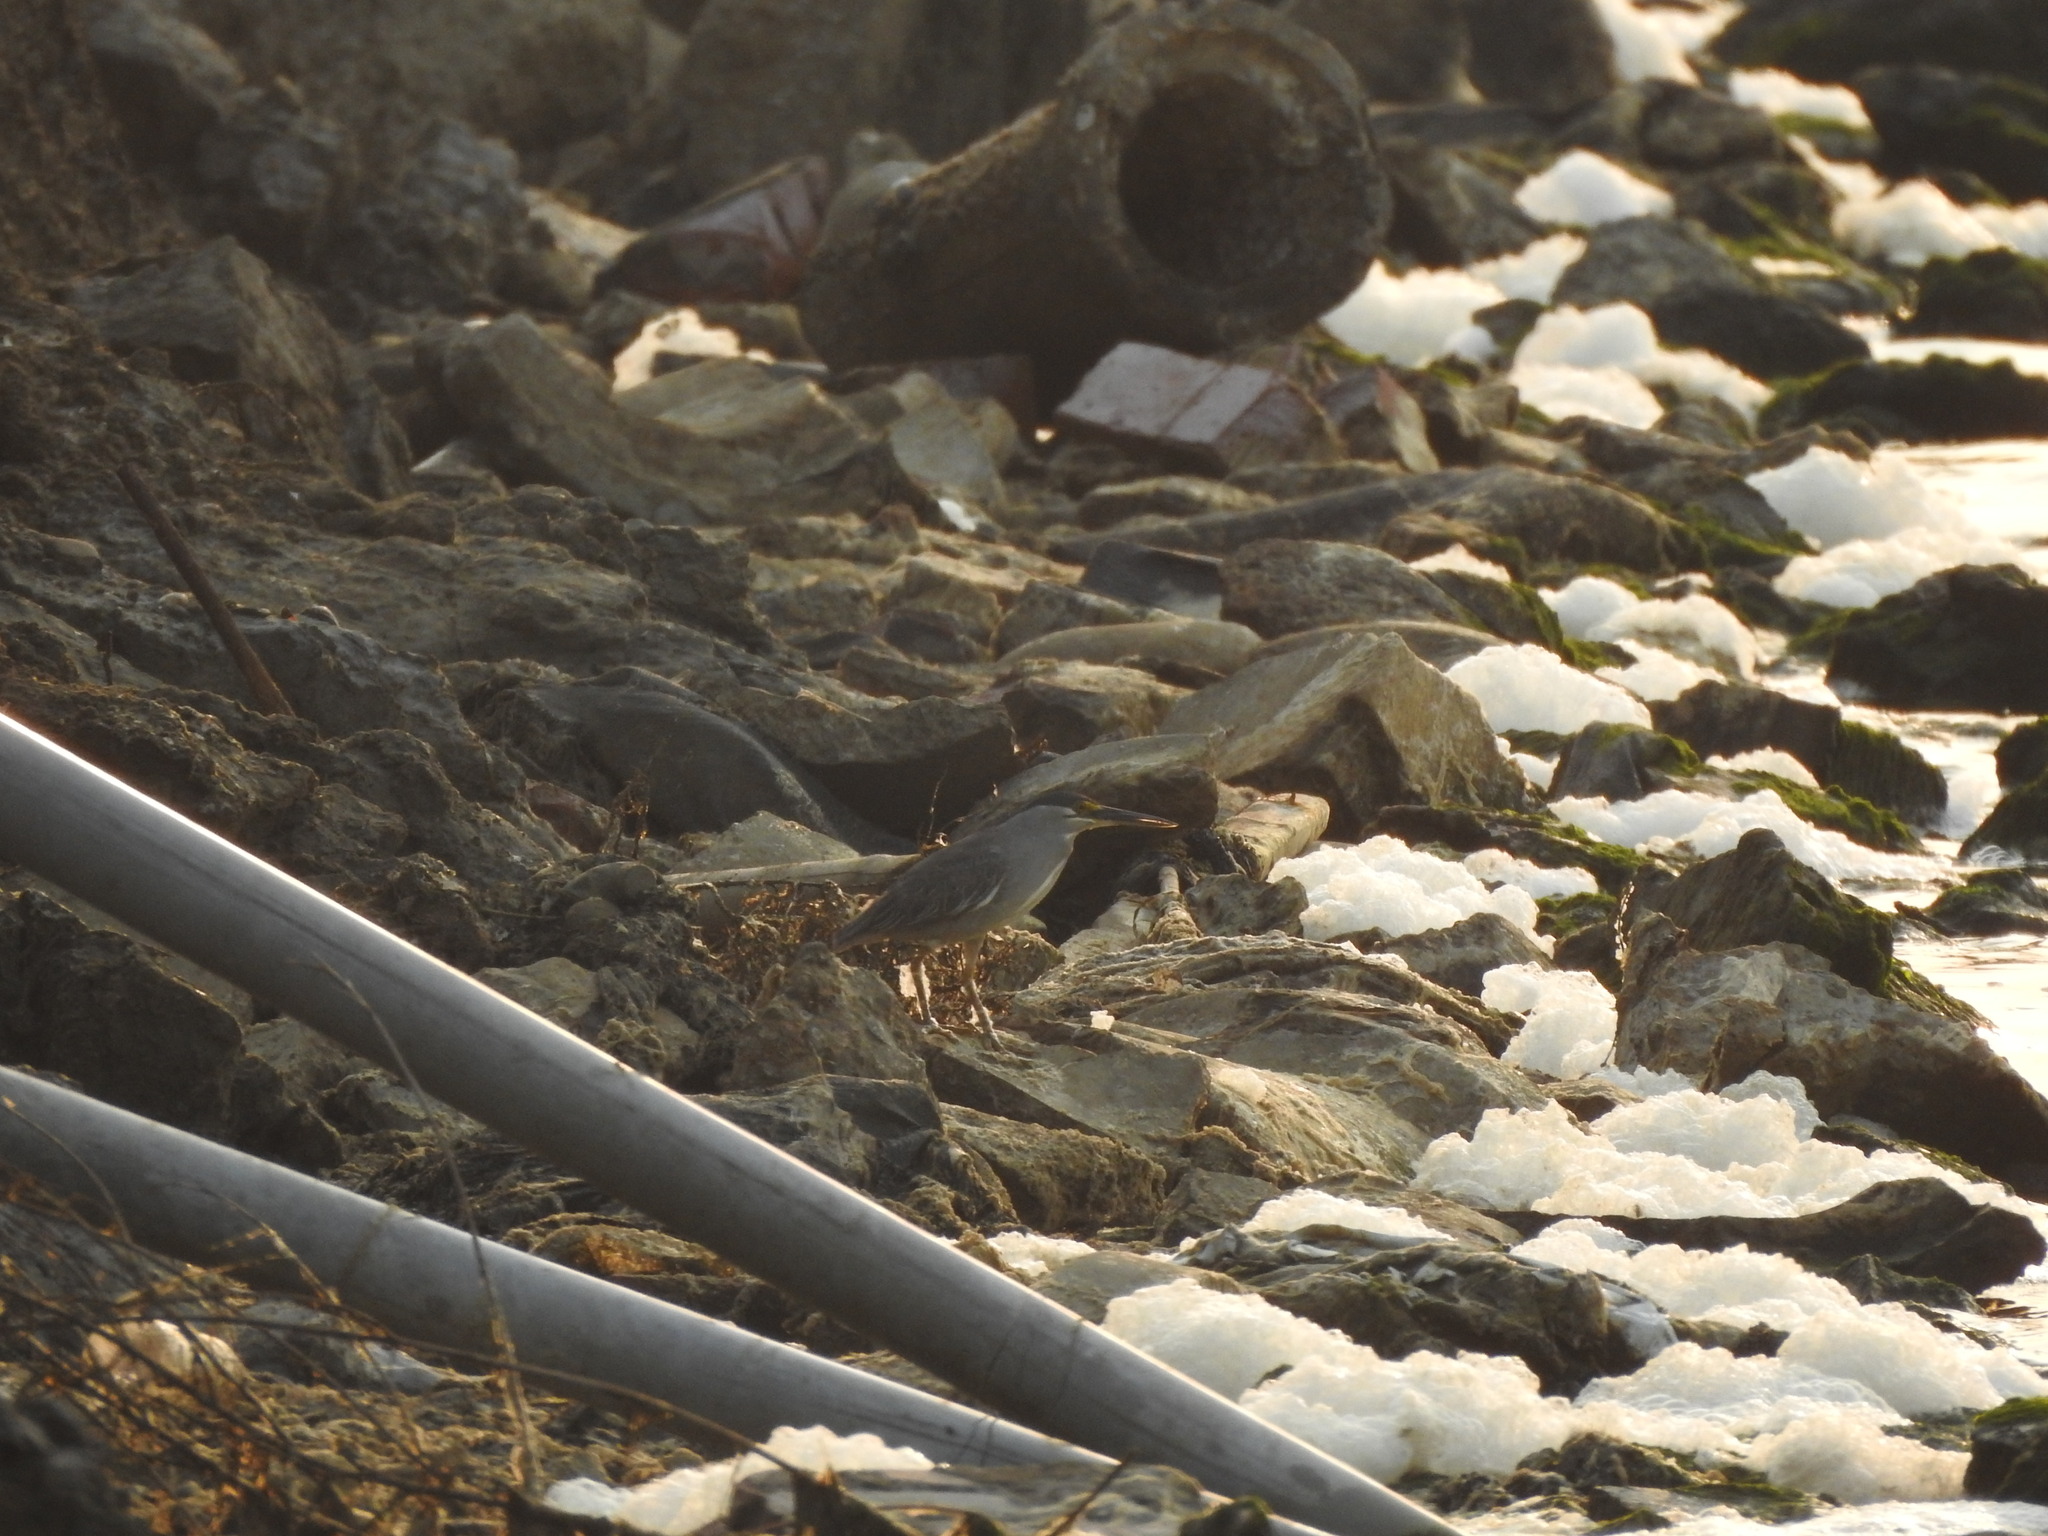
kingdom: Animalia
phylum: Chordata
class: Aves
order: Pelecaniformes
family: Ardeidae
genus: Butorides
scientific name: Butorides striata
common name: Striated heron
